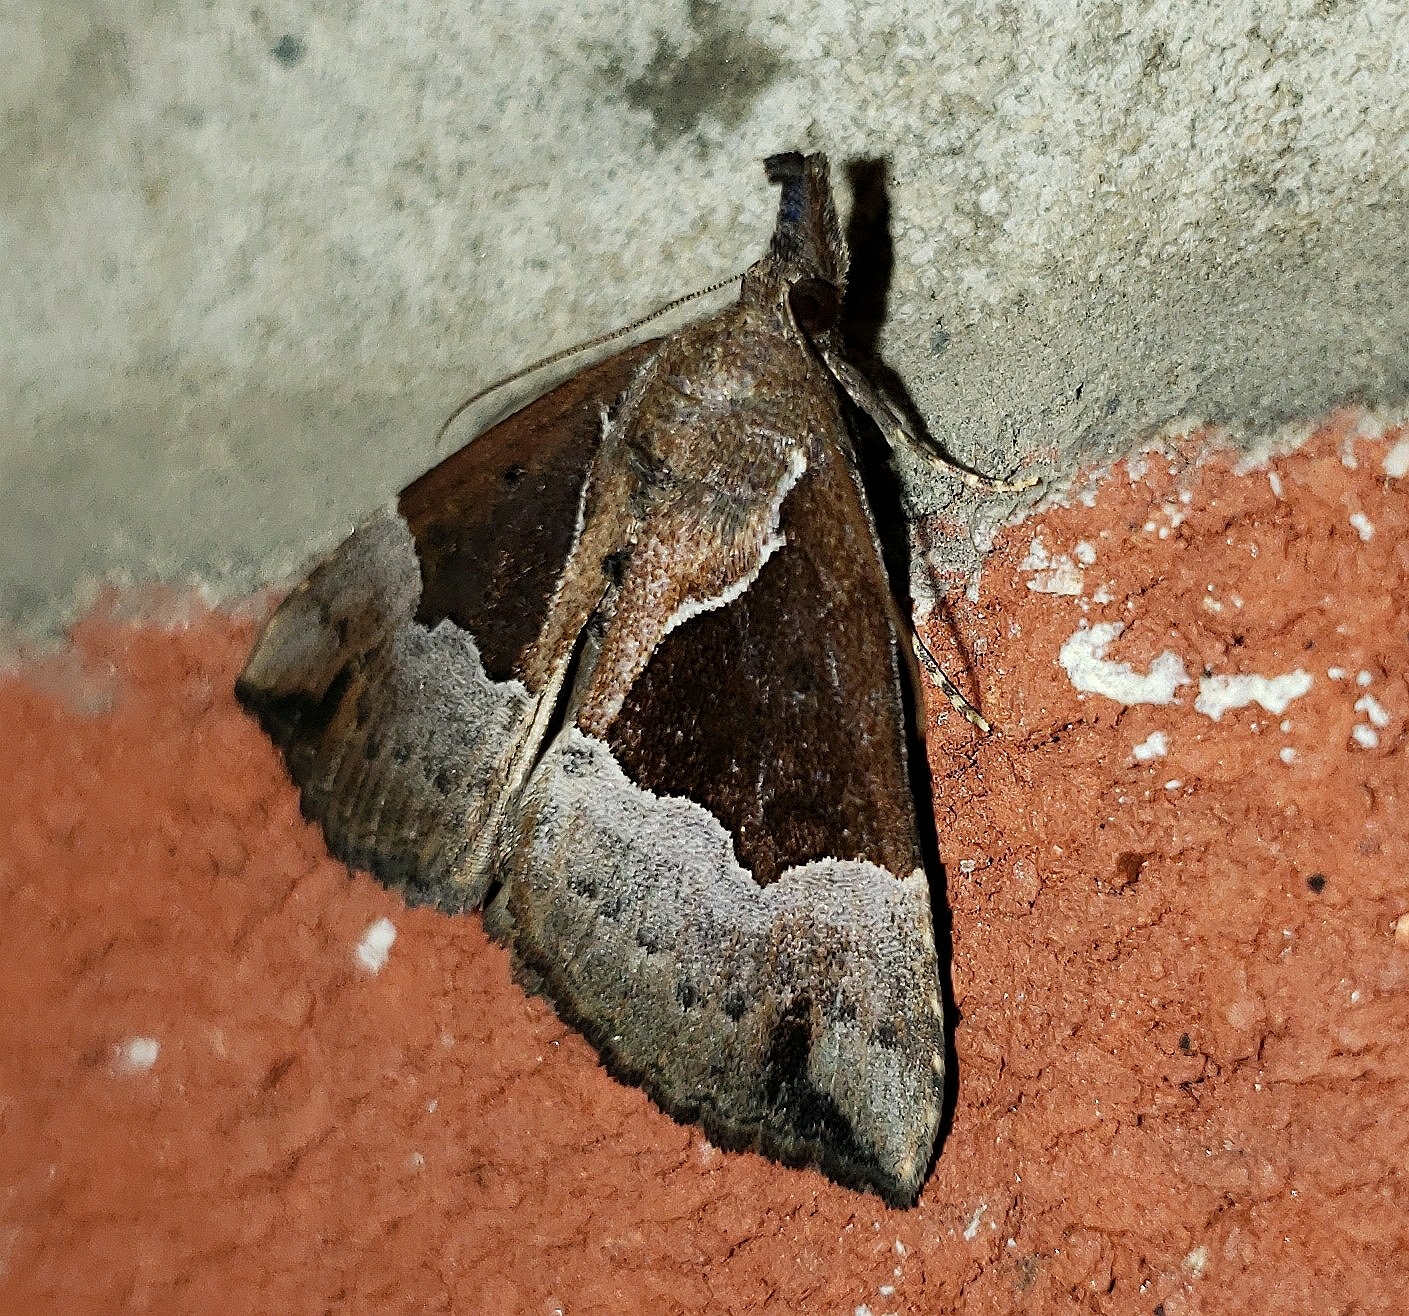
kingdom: Animalia
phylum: Arthropoda
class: Insecta
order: Lepidoptera
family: Erebidae
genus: Hypena
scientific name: Hypena bijugalis
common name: Dimorphic bomolocha moth
